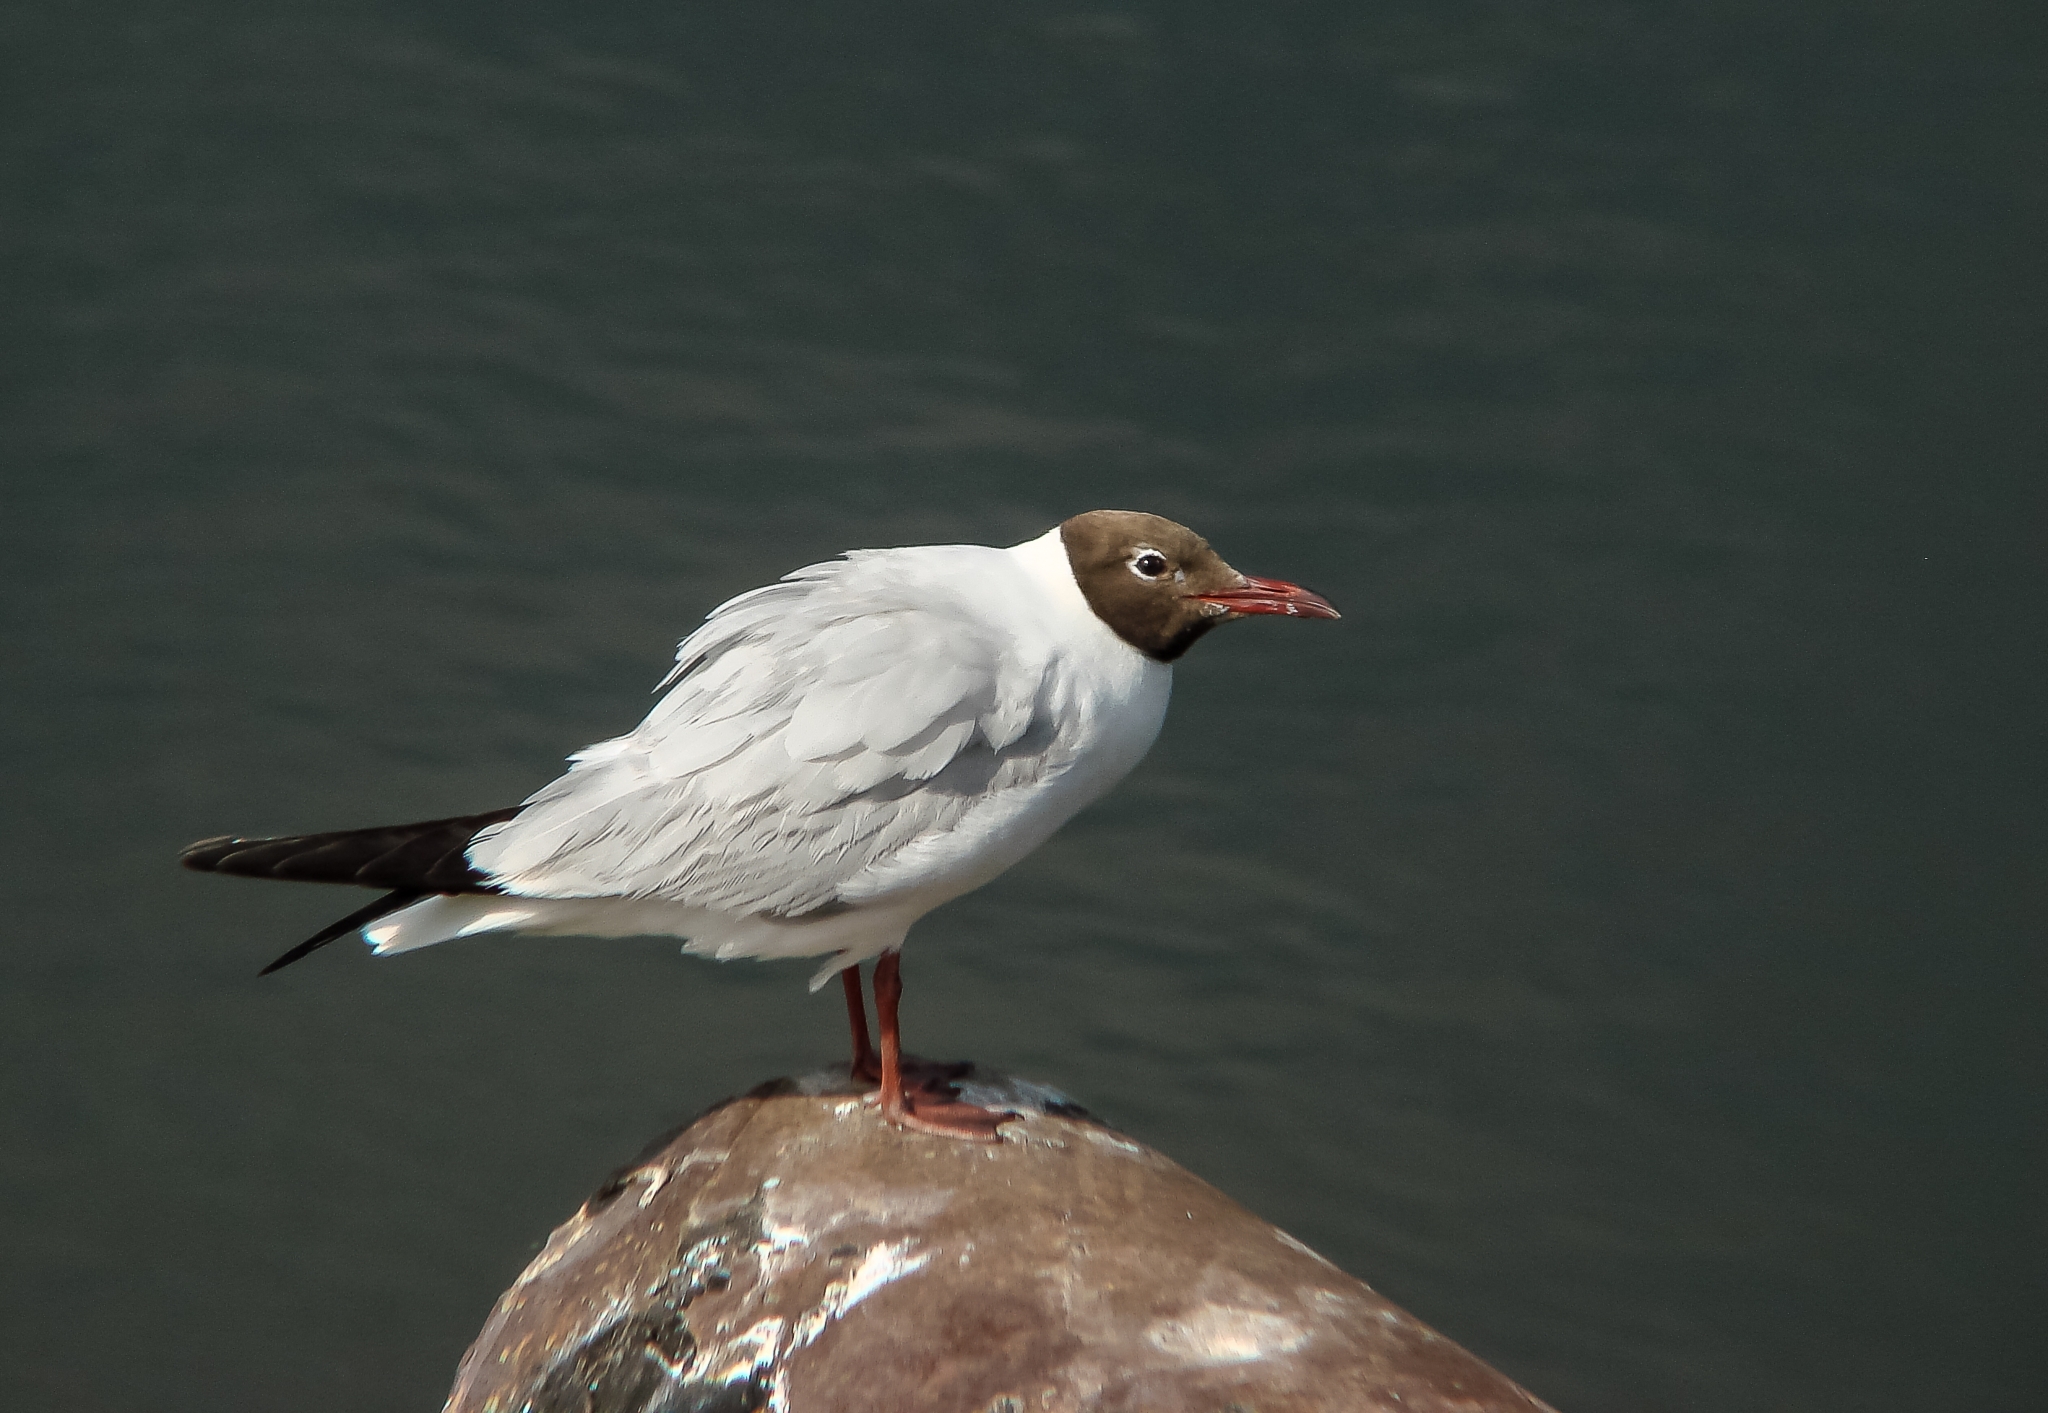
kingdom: Animalia
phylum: Chordata
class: Aves
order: Charadriiformes
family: Laridae
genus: Chroicocephalus
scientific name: Chroicocephalus ridibundus
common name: Black-headed gull
